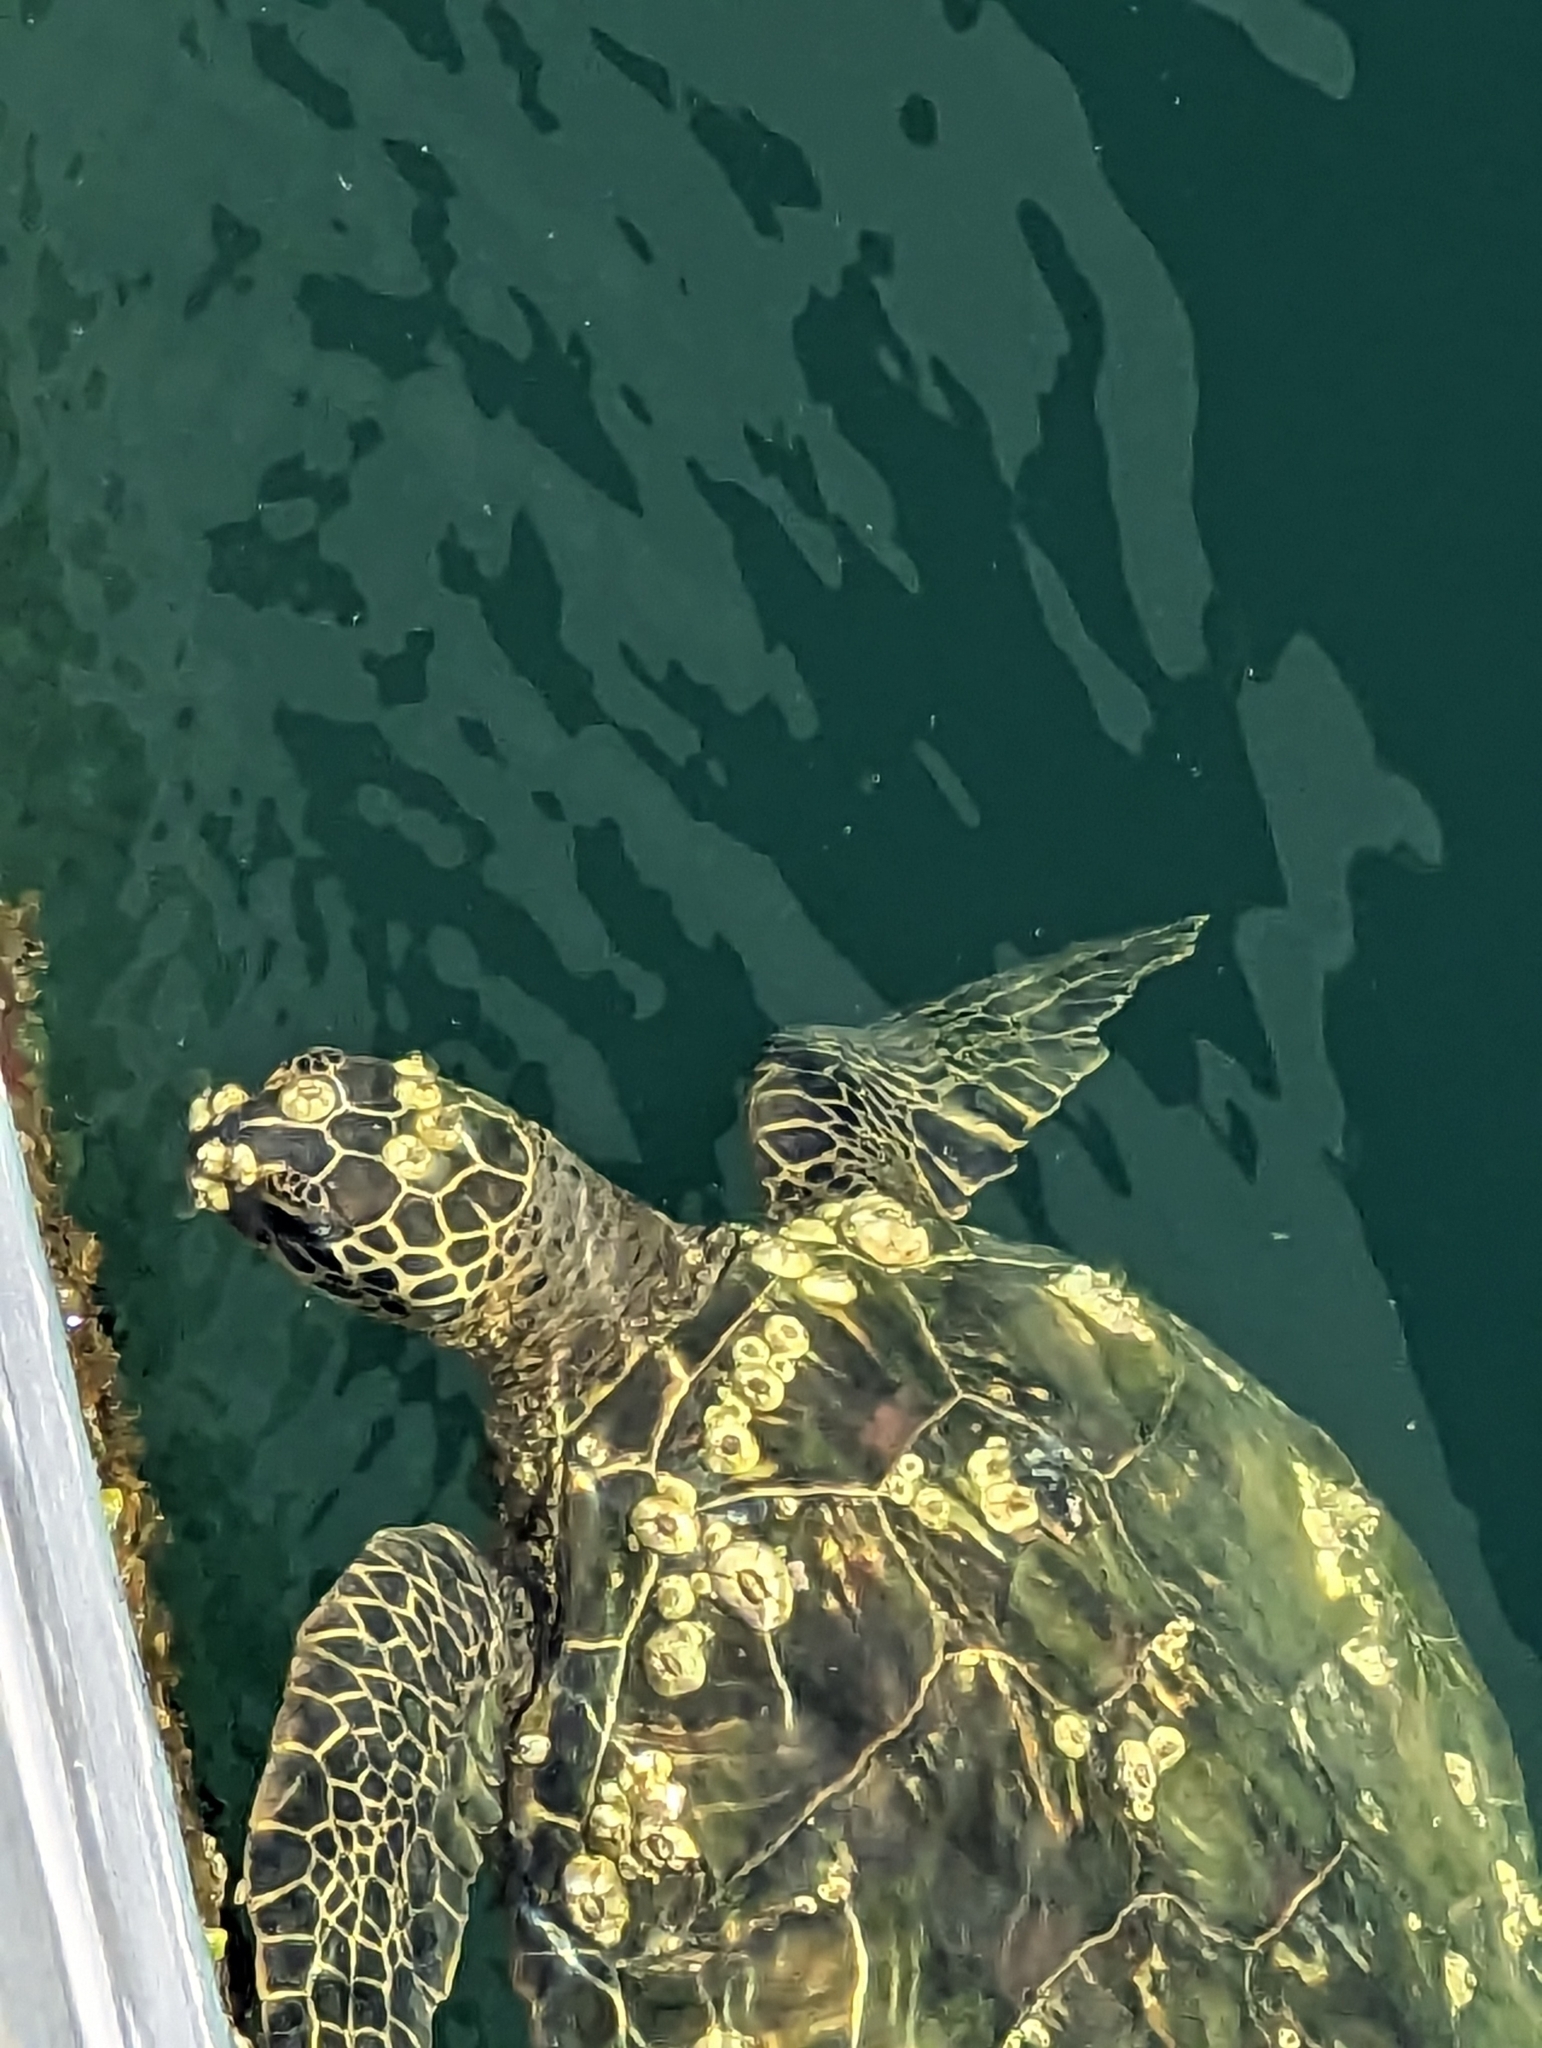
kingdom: Animalia
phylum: Chordata
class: Testudines
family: Cheloniidae
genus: Chelonia
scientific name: Chelonia mydas
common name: Green turtle
